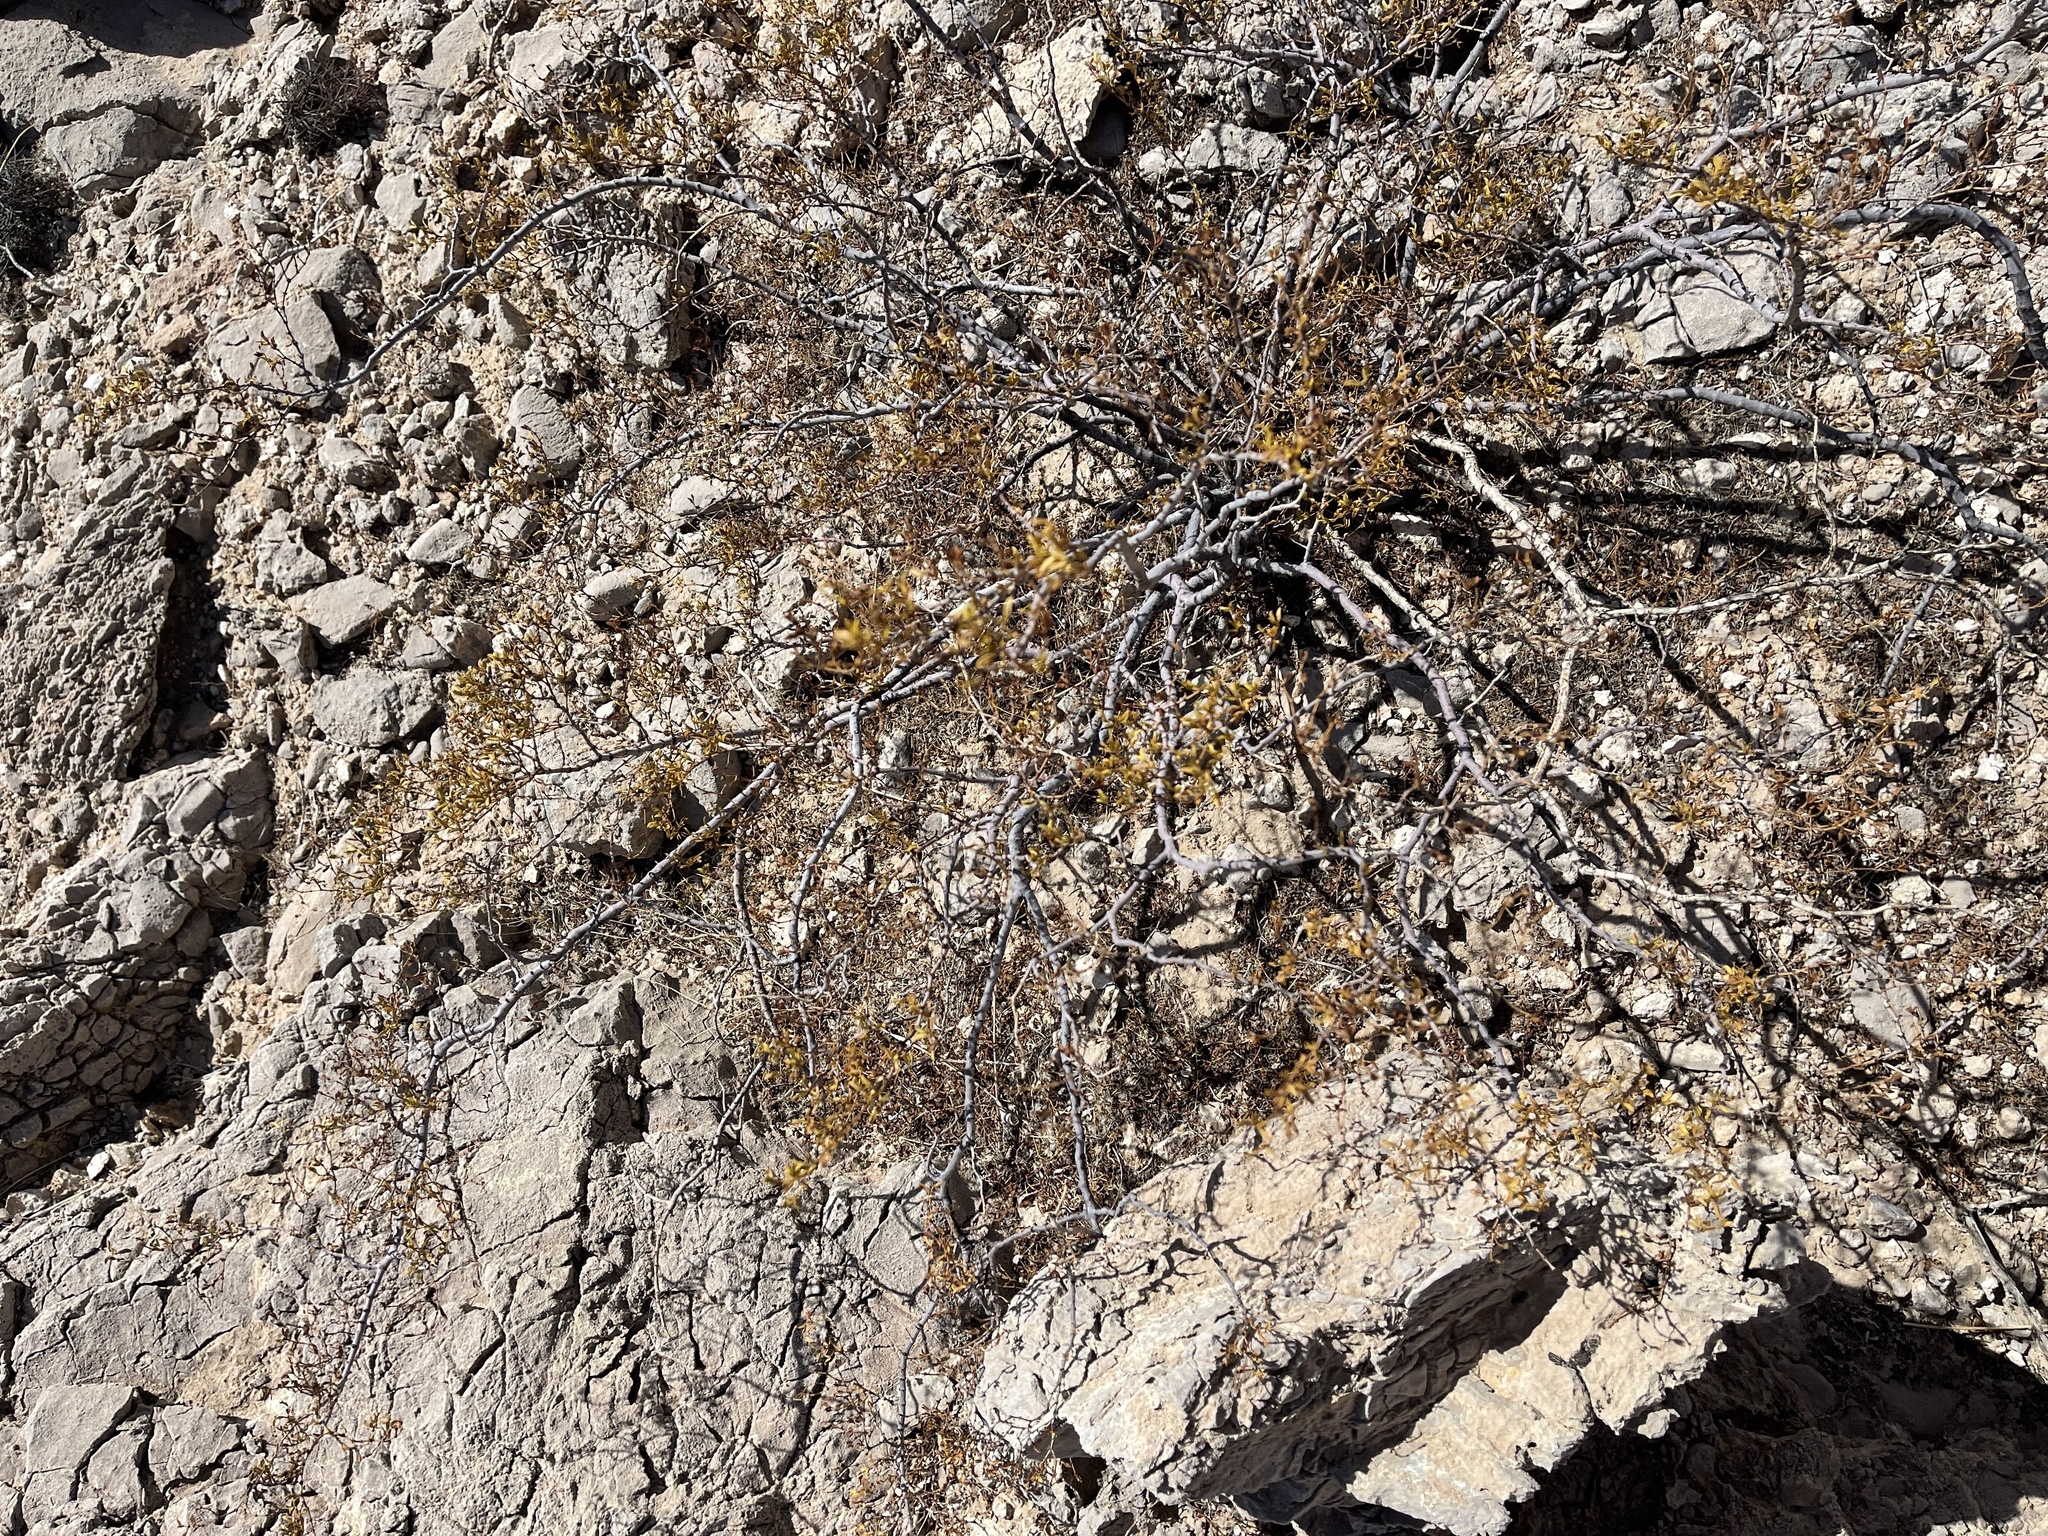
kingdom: Plantae
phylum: Tracheophyta
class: Magnoliopsida
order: Zygophyllales
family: Zygophyllaceae
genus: Larrea
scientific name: Larrea tridentata
